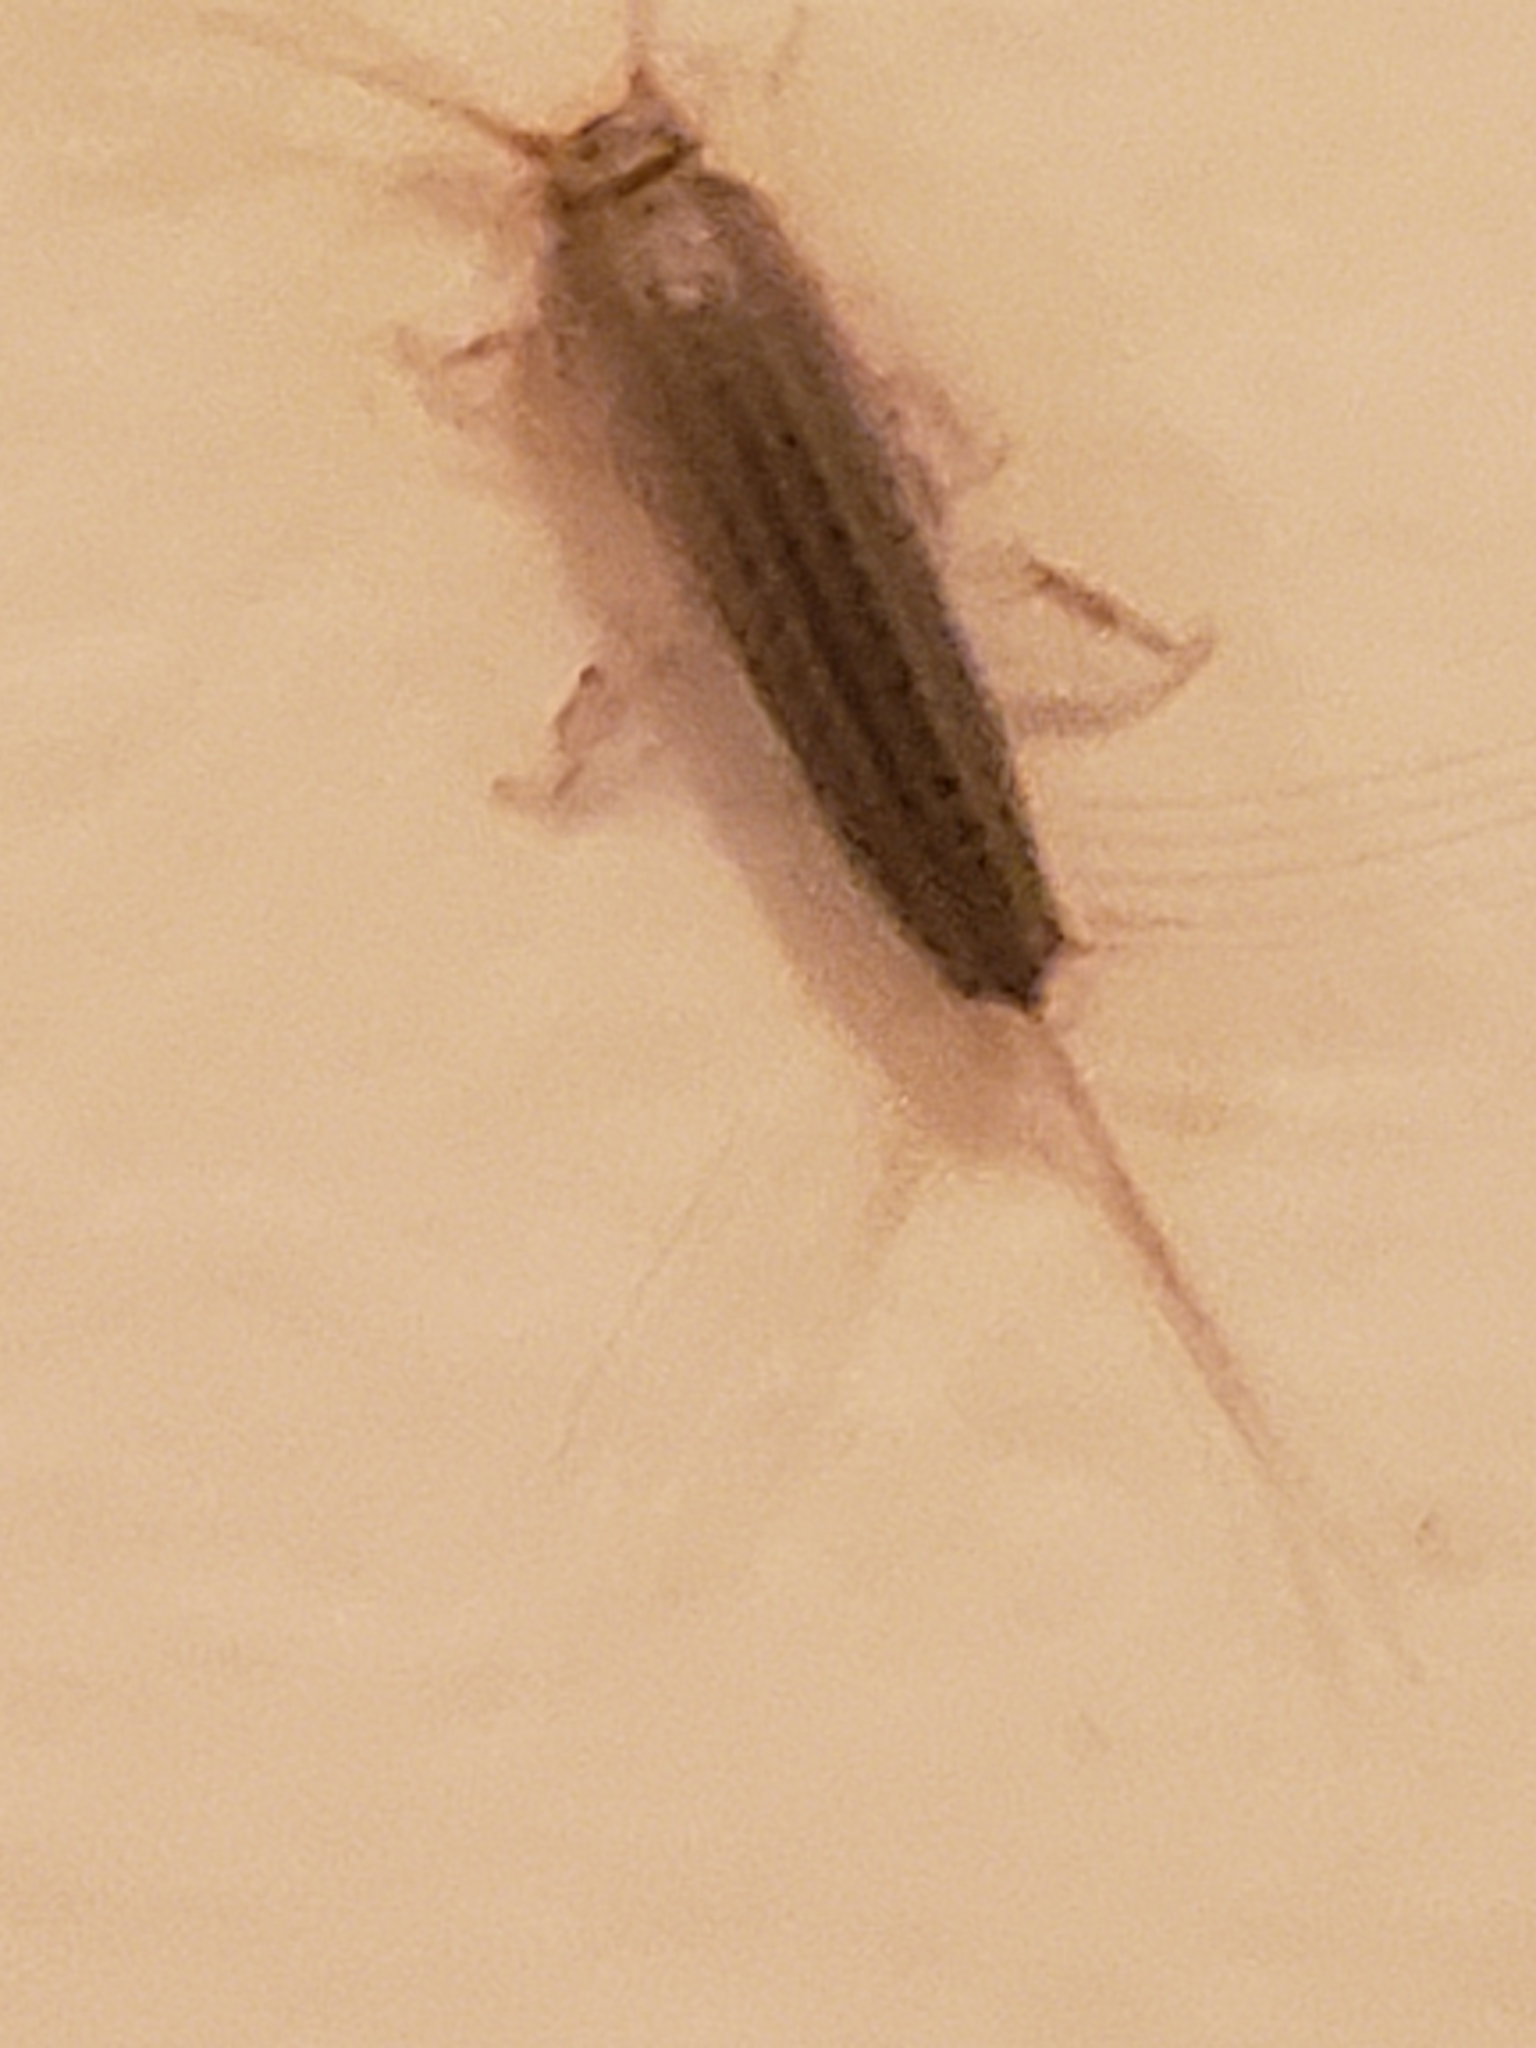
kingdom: Animalia
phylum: Arthropoda
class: Insecta
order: Zygentoma
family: Lepismatidae
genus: Ctenolepisma
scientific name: Ctenolepisma lineata
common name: Four-lined silverfish
